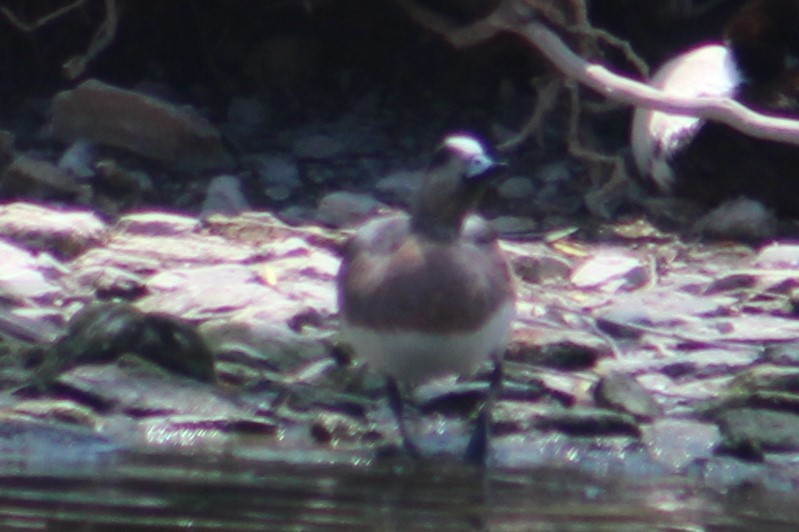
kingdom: Animalia
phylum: Chordata
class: Aves
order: Anseriformes
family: Anatidae
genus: Mareca
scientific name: Mareca americana
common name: American wigeon
